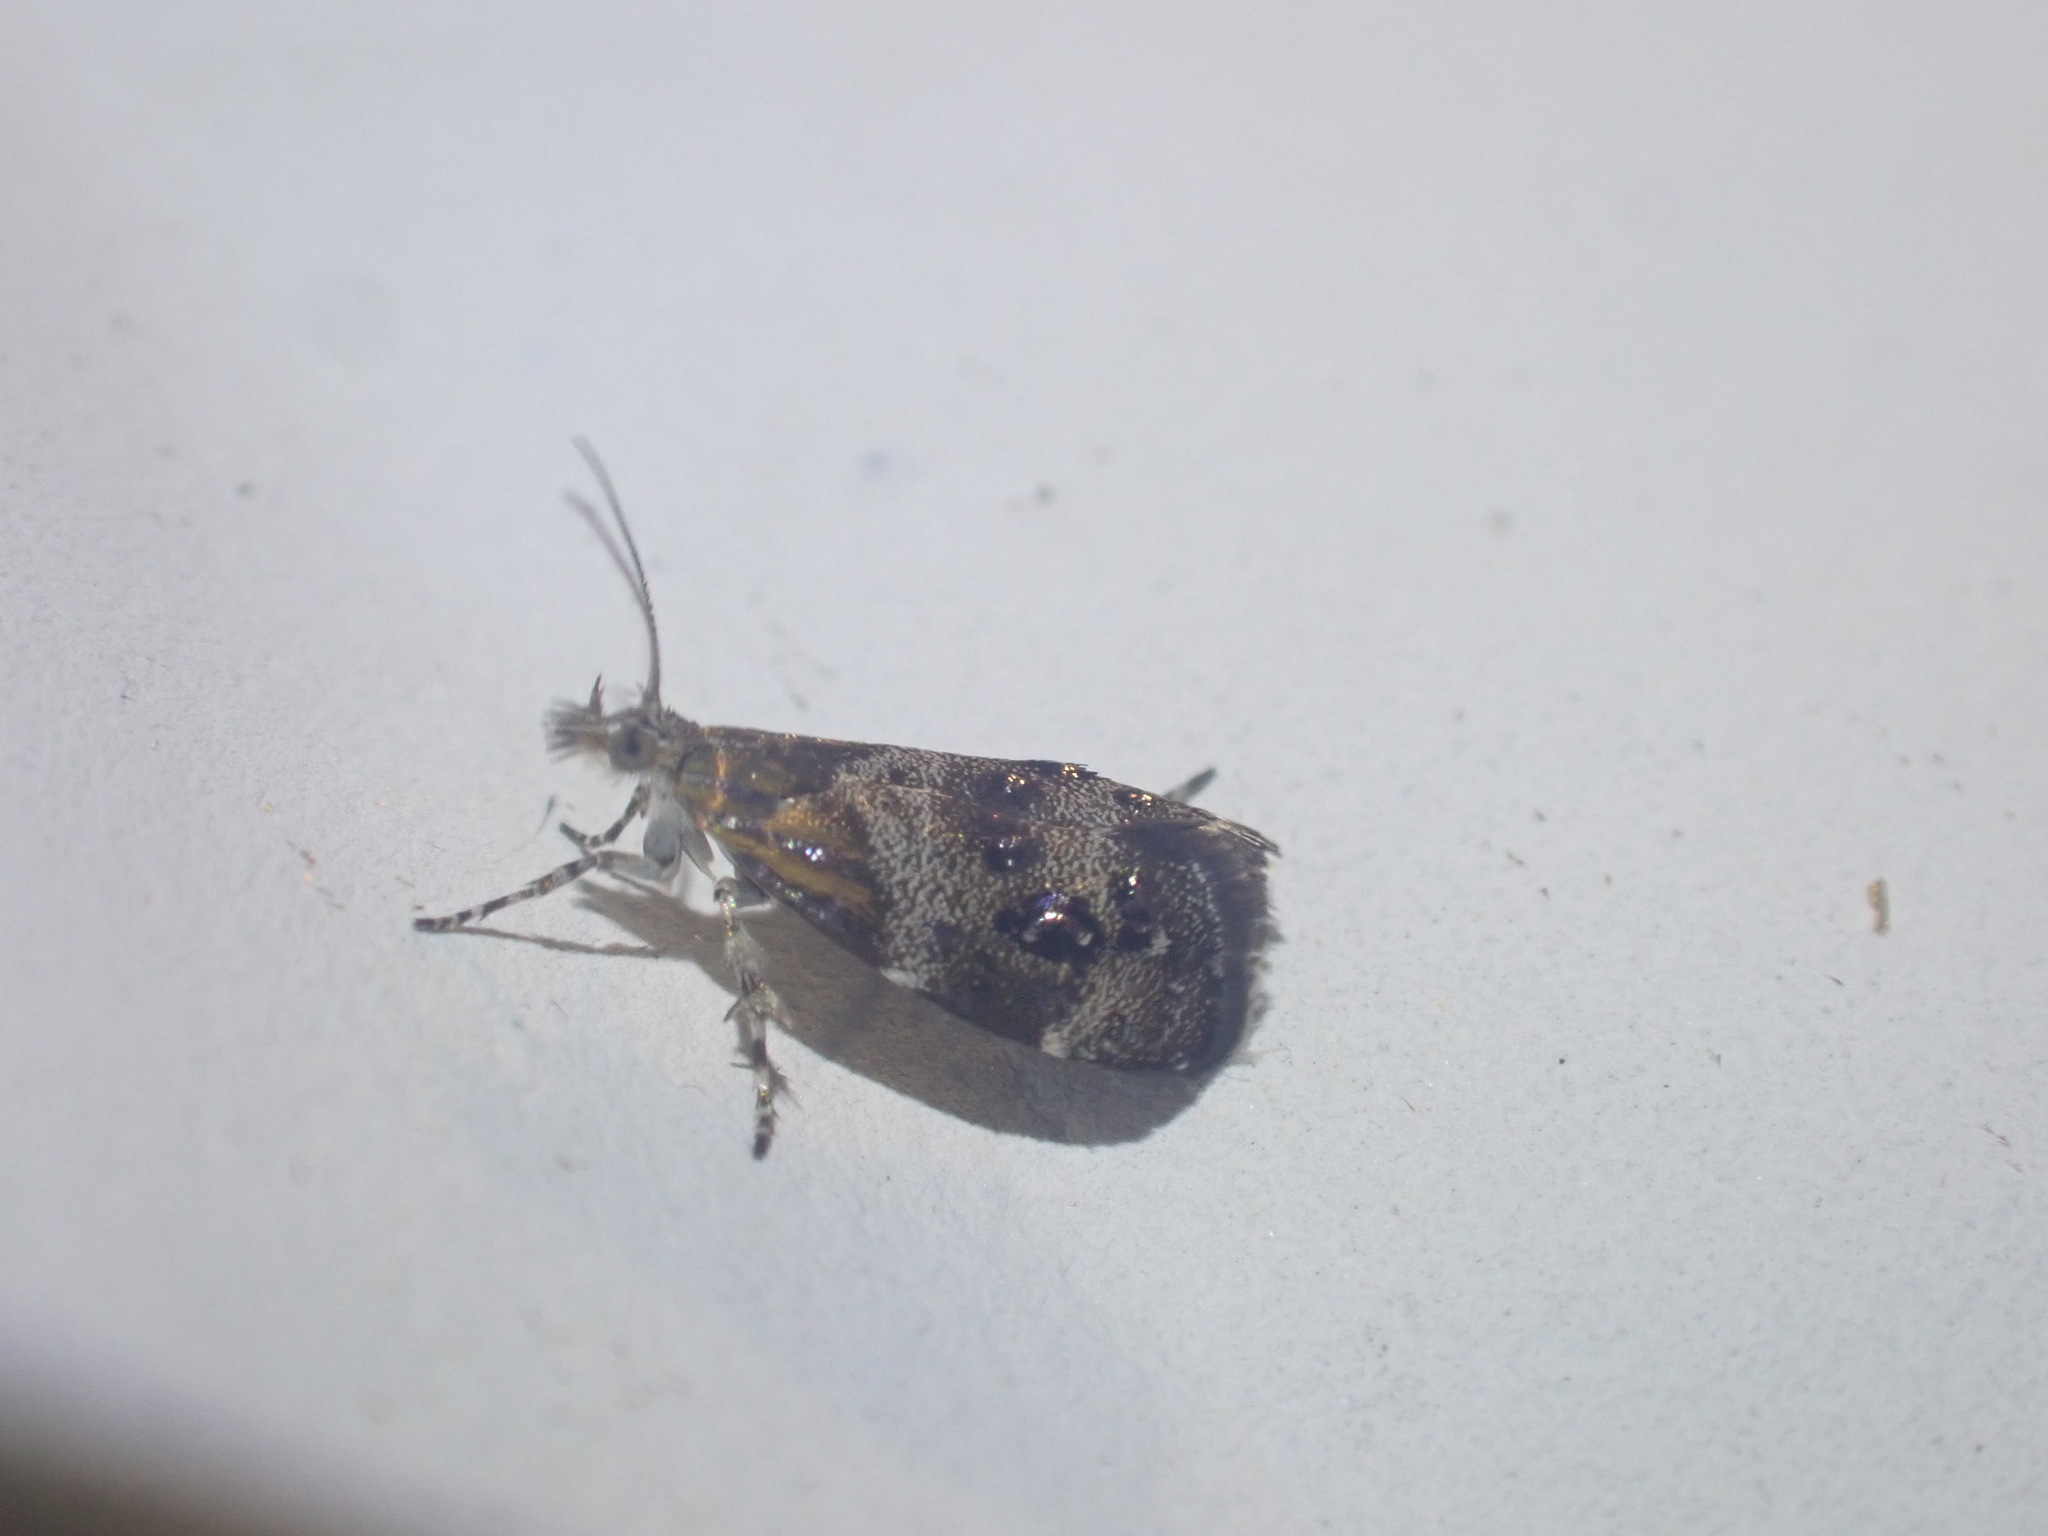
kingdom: Animalia
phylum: Arthropoda
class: Insecta
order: Lepidoptera
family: Choreutidae
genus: Tebenna
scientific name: Tebenna micalis
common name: Vagrant twitcher
